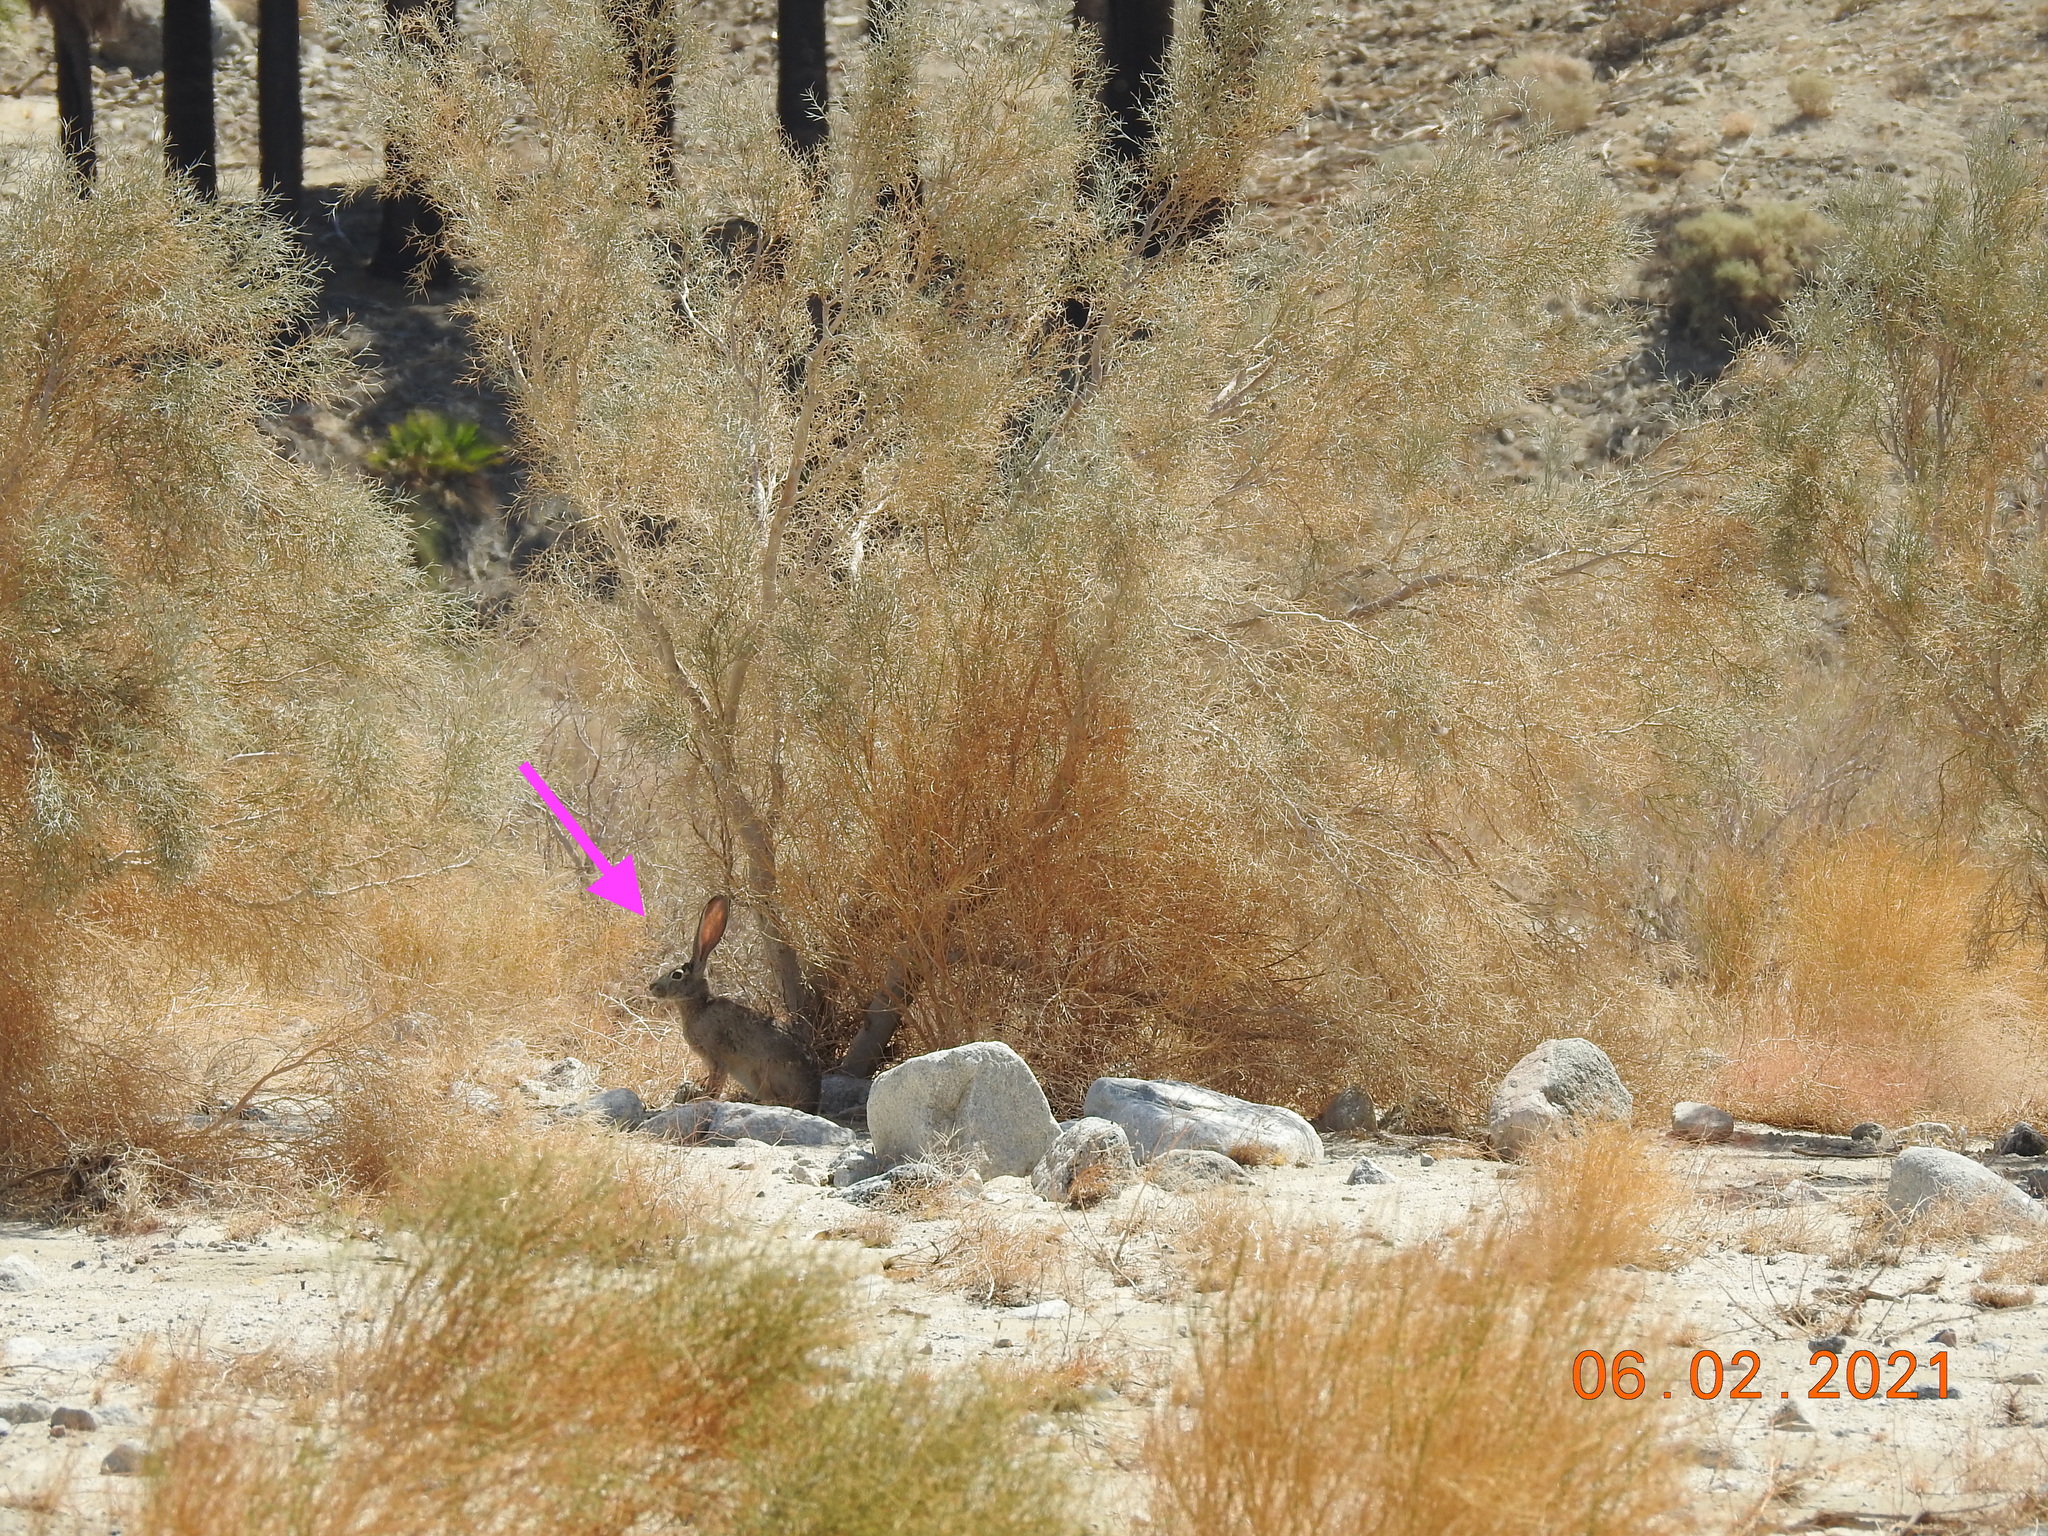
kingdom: Animalia
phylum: Chordata
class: Mammalia
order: Lagomorpha
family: Leporidae
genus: Lepus
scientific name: Lepus californicus
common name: Black-tailed jackrabbit
